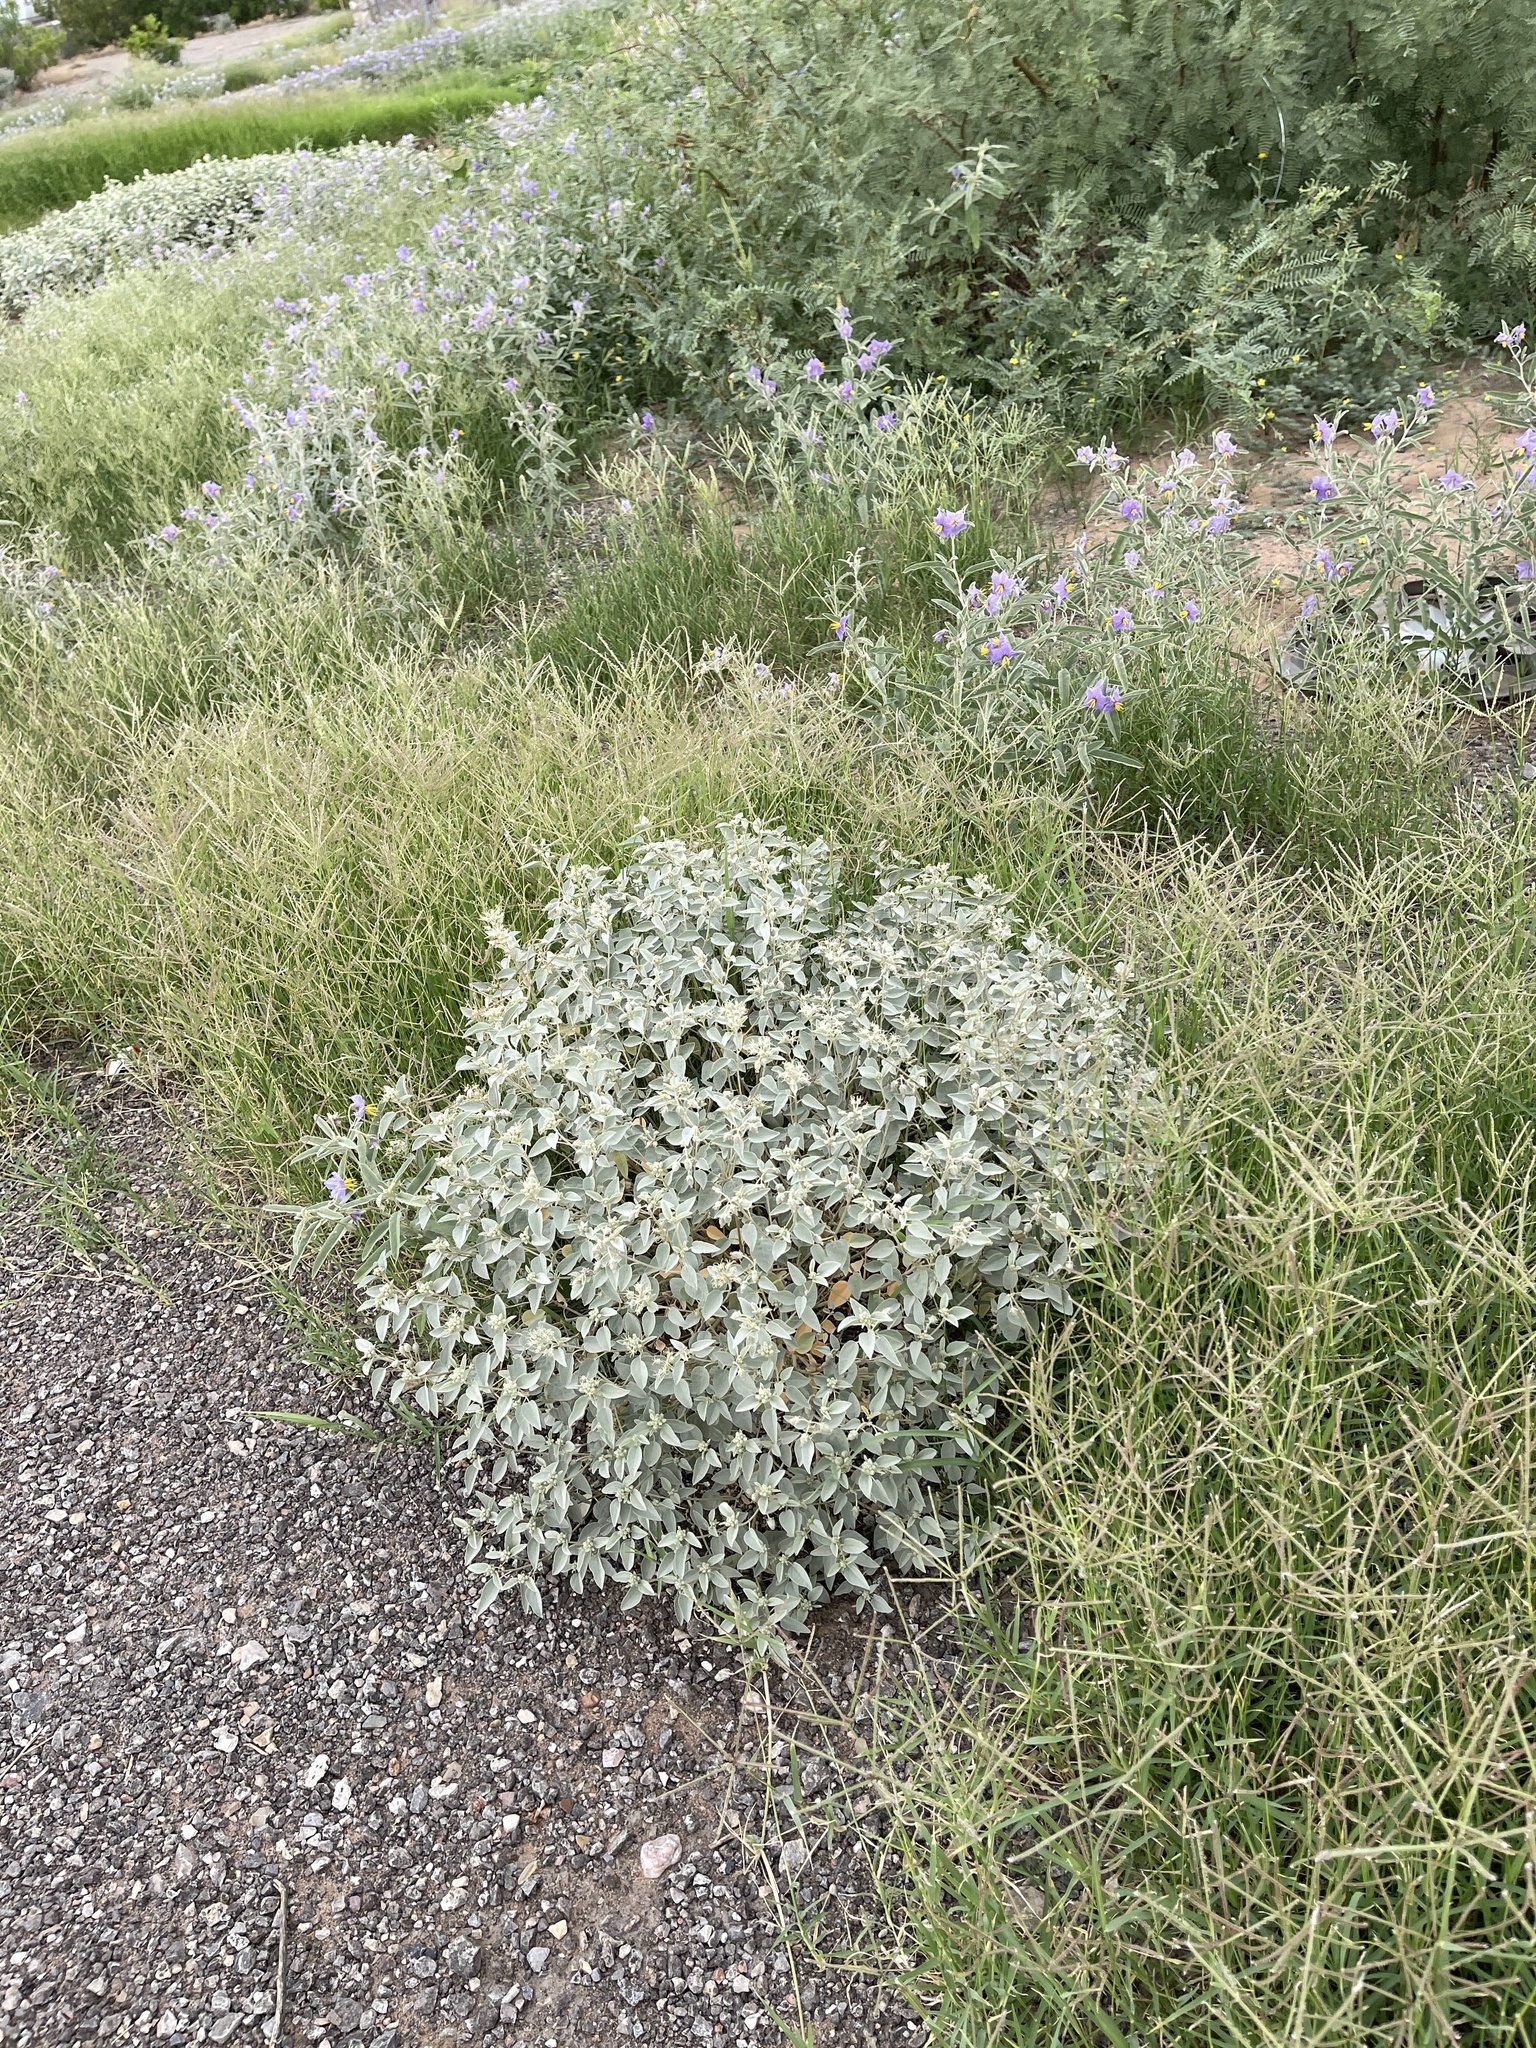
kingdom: Plantae
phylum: Tracheophyta
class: Magnoliopsida
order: Malpighiales
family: Euphorbiaceae
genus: Croton
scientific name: Croton pottsii
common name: Leatherweed
